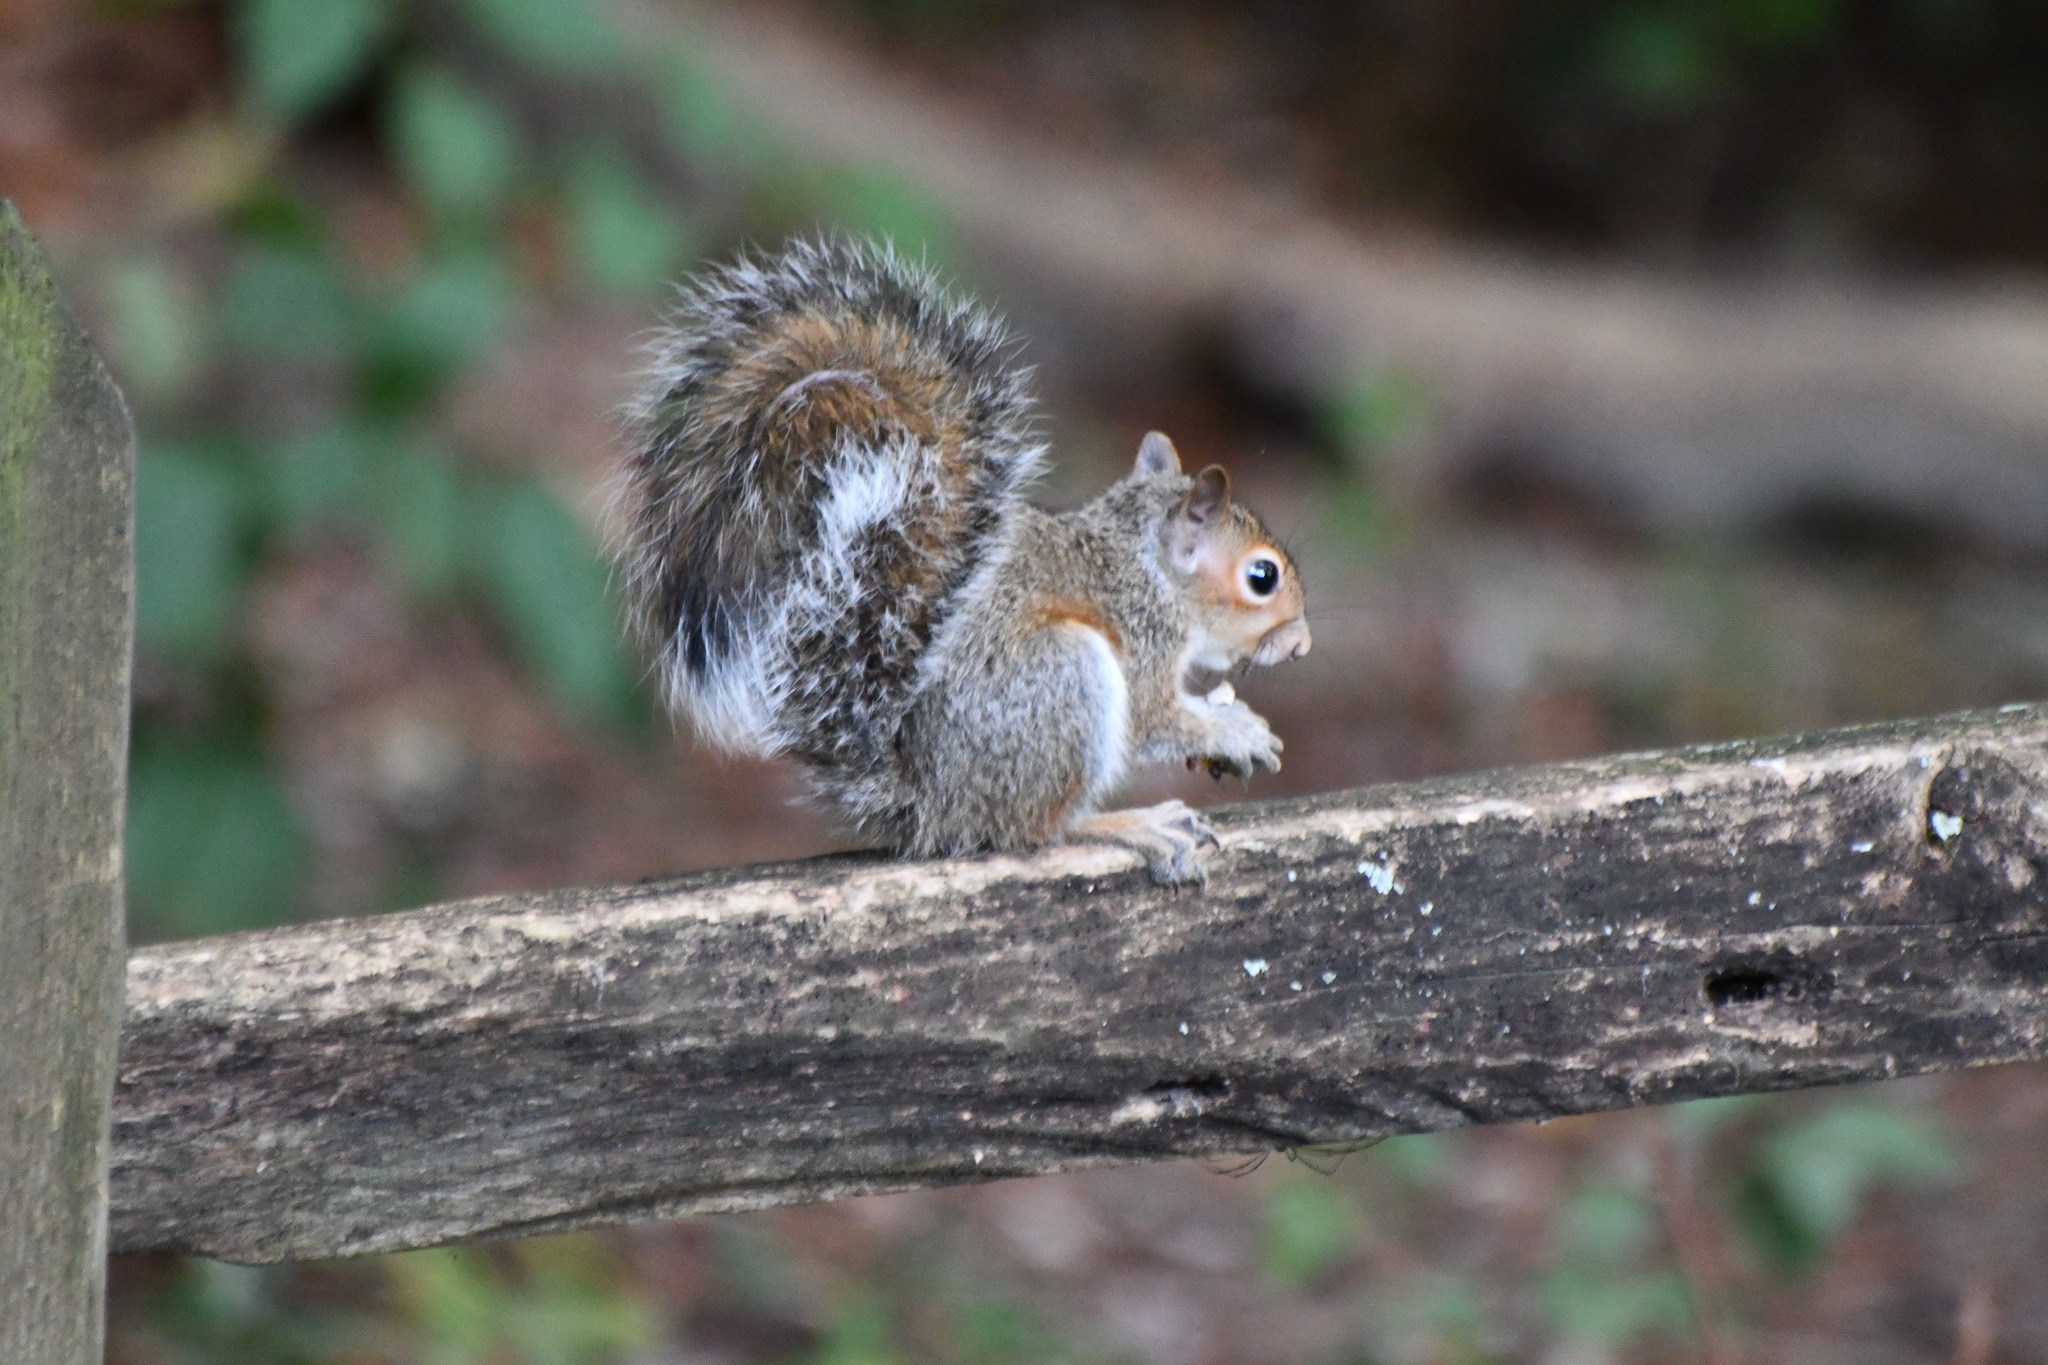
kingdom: Animalia
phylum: Chordata
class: Mammalia
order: Rodentia
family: Sciuridae
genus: Sciurus
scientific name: Sciurus carolinensis
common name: Eastern gray squirrel
